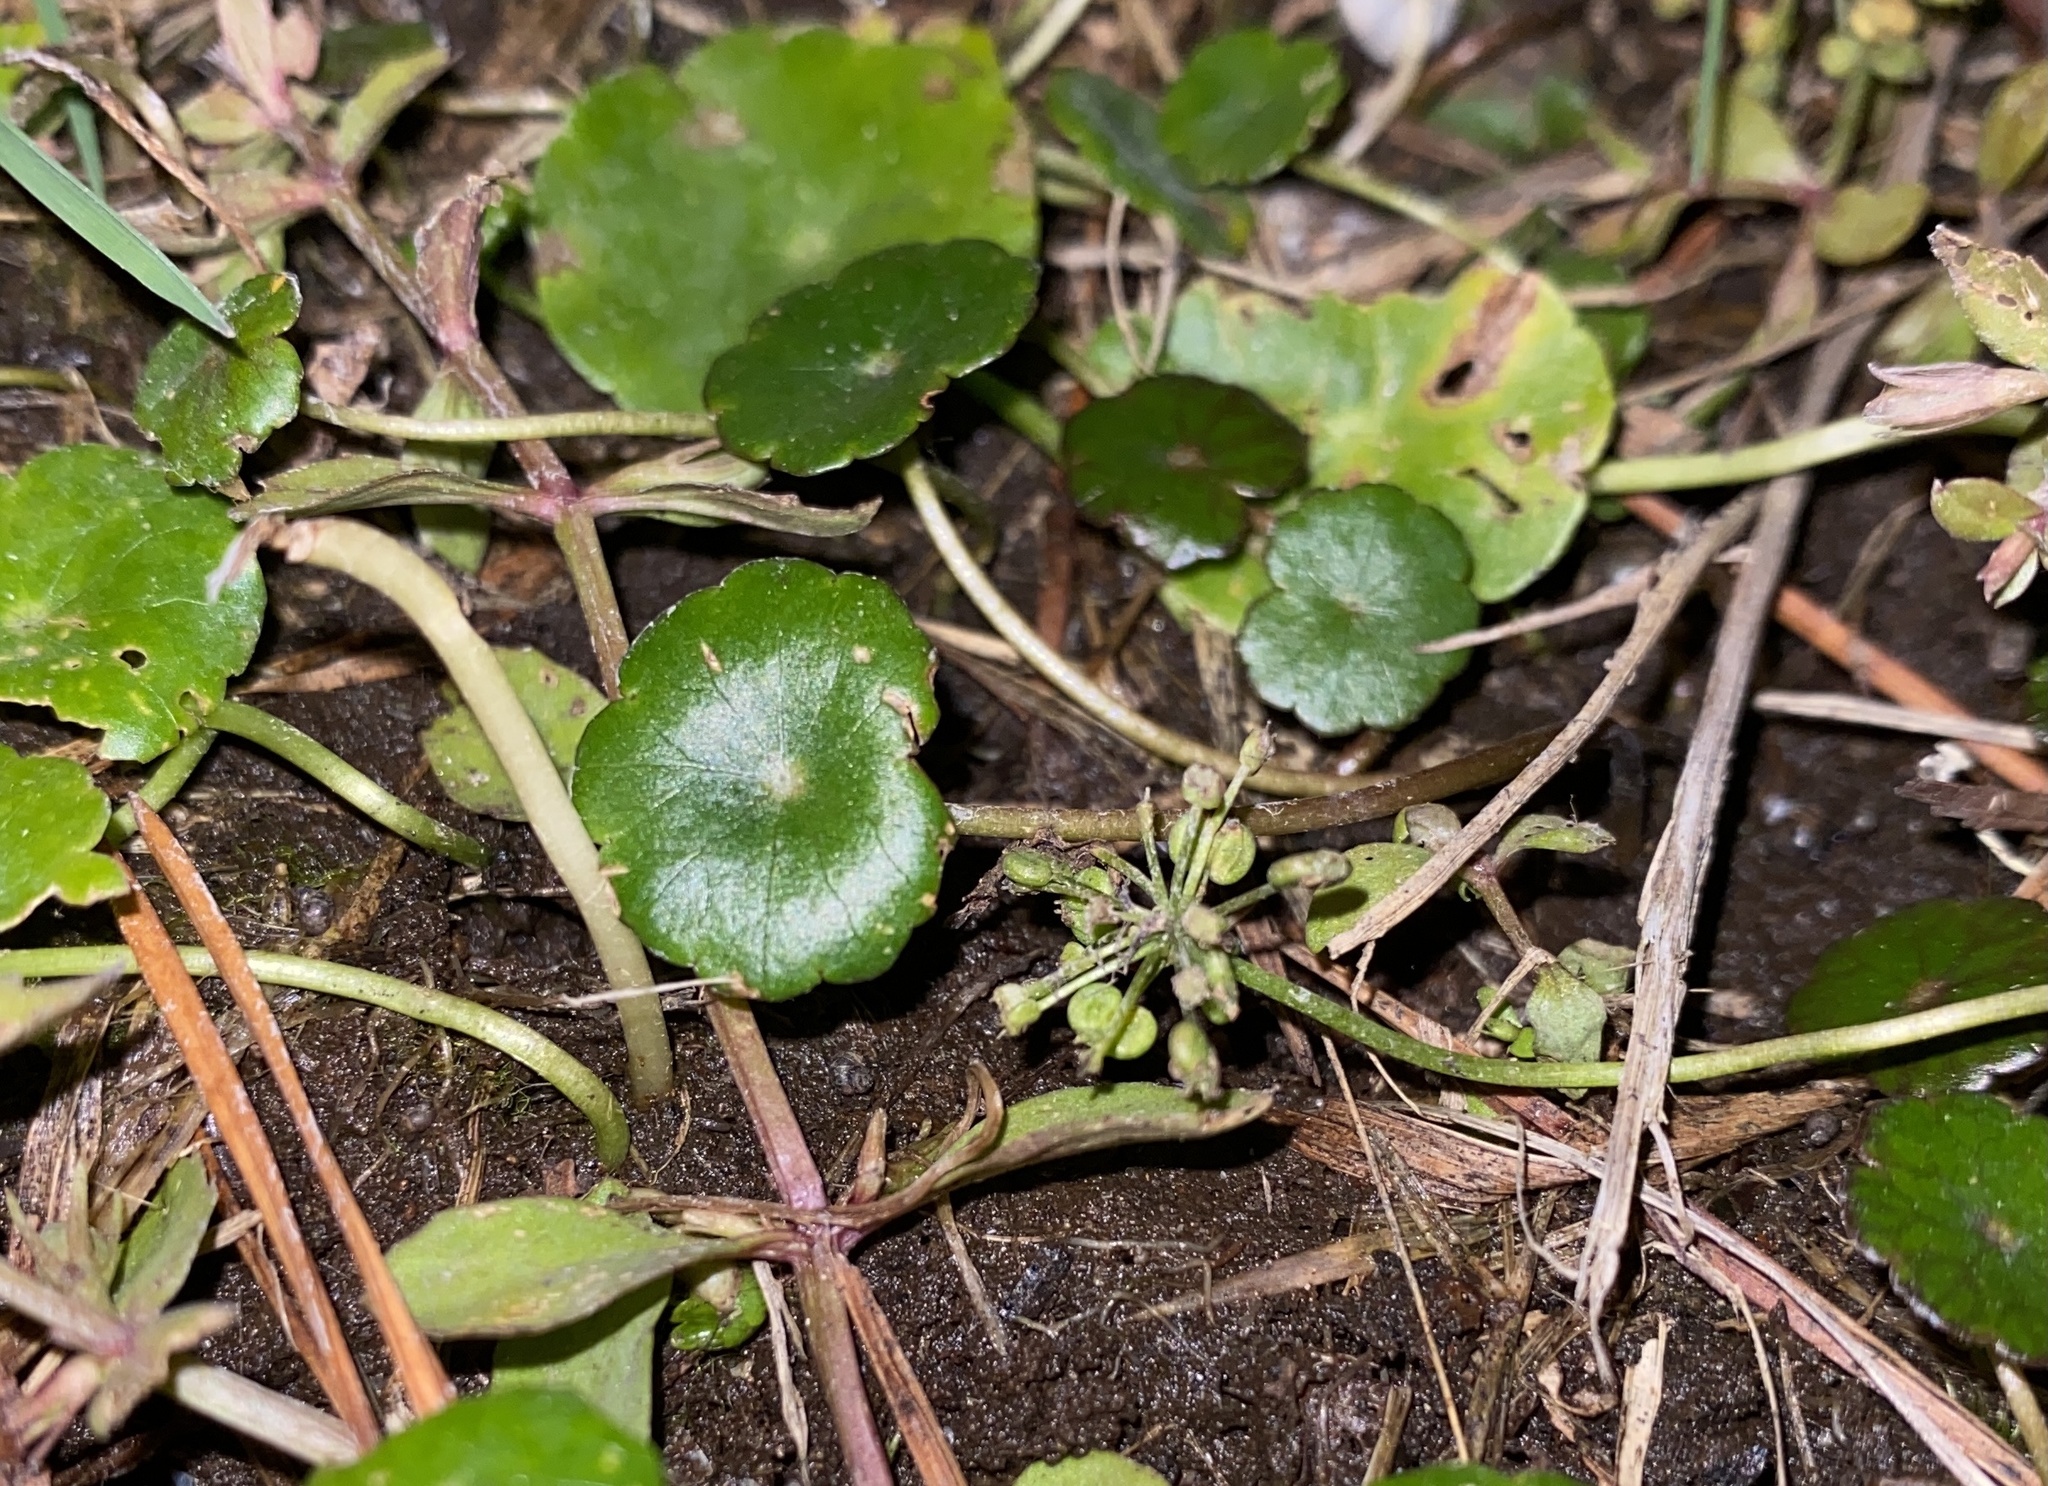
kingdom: Plantae
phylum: Tracheophyta
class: Magnoliopsida
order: Apiales
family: Araliaceae
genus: Hydrocotyle
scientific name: Hydrocotyle umbellata
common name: Water pennywort
